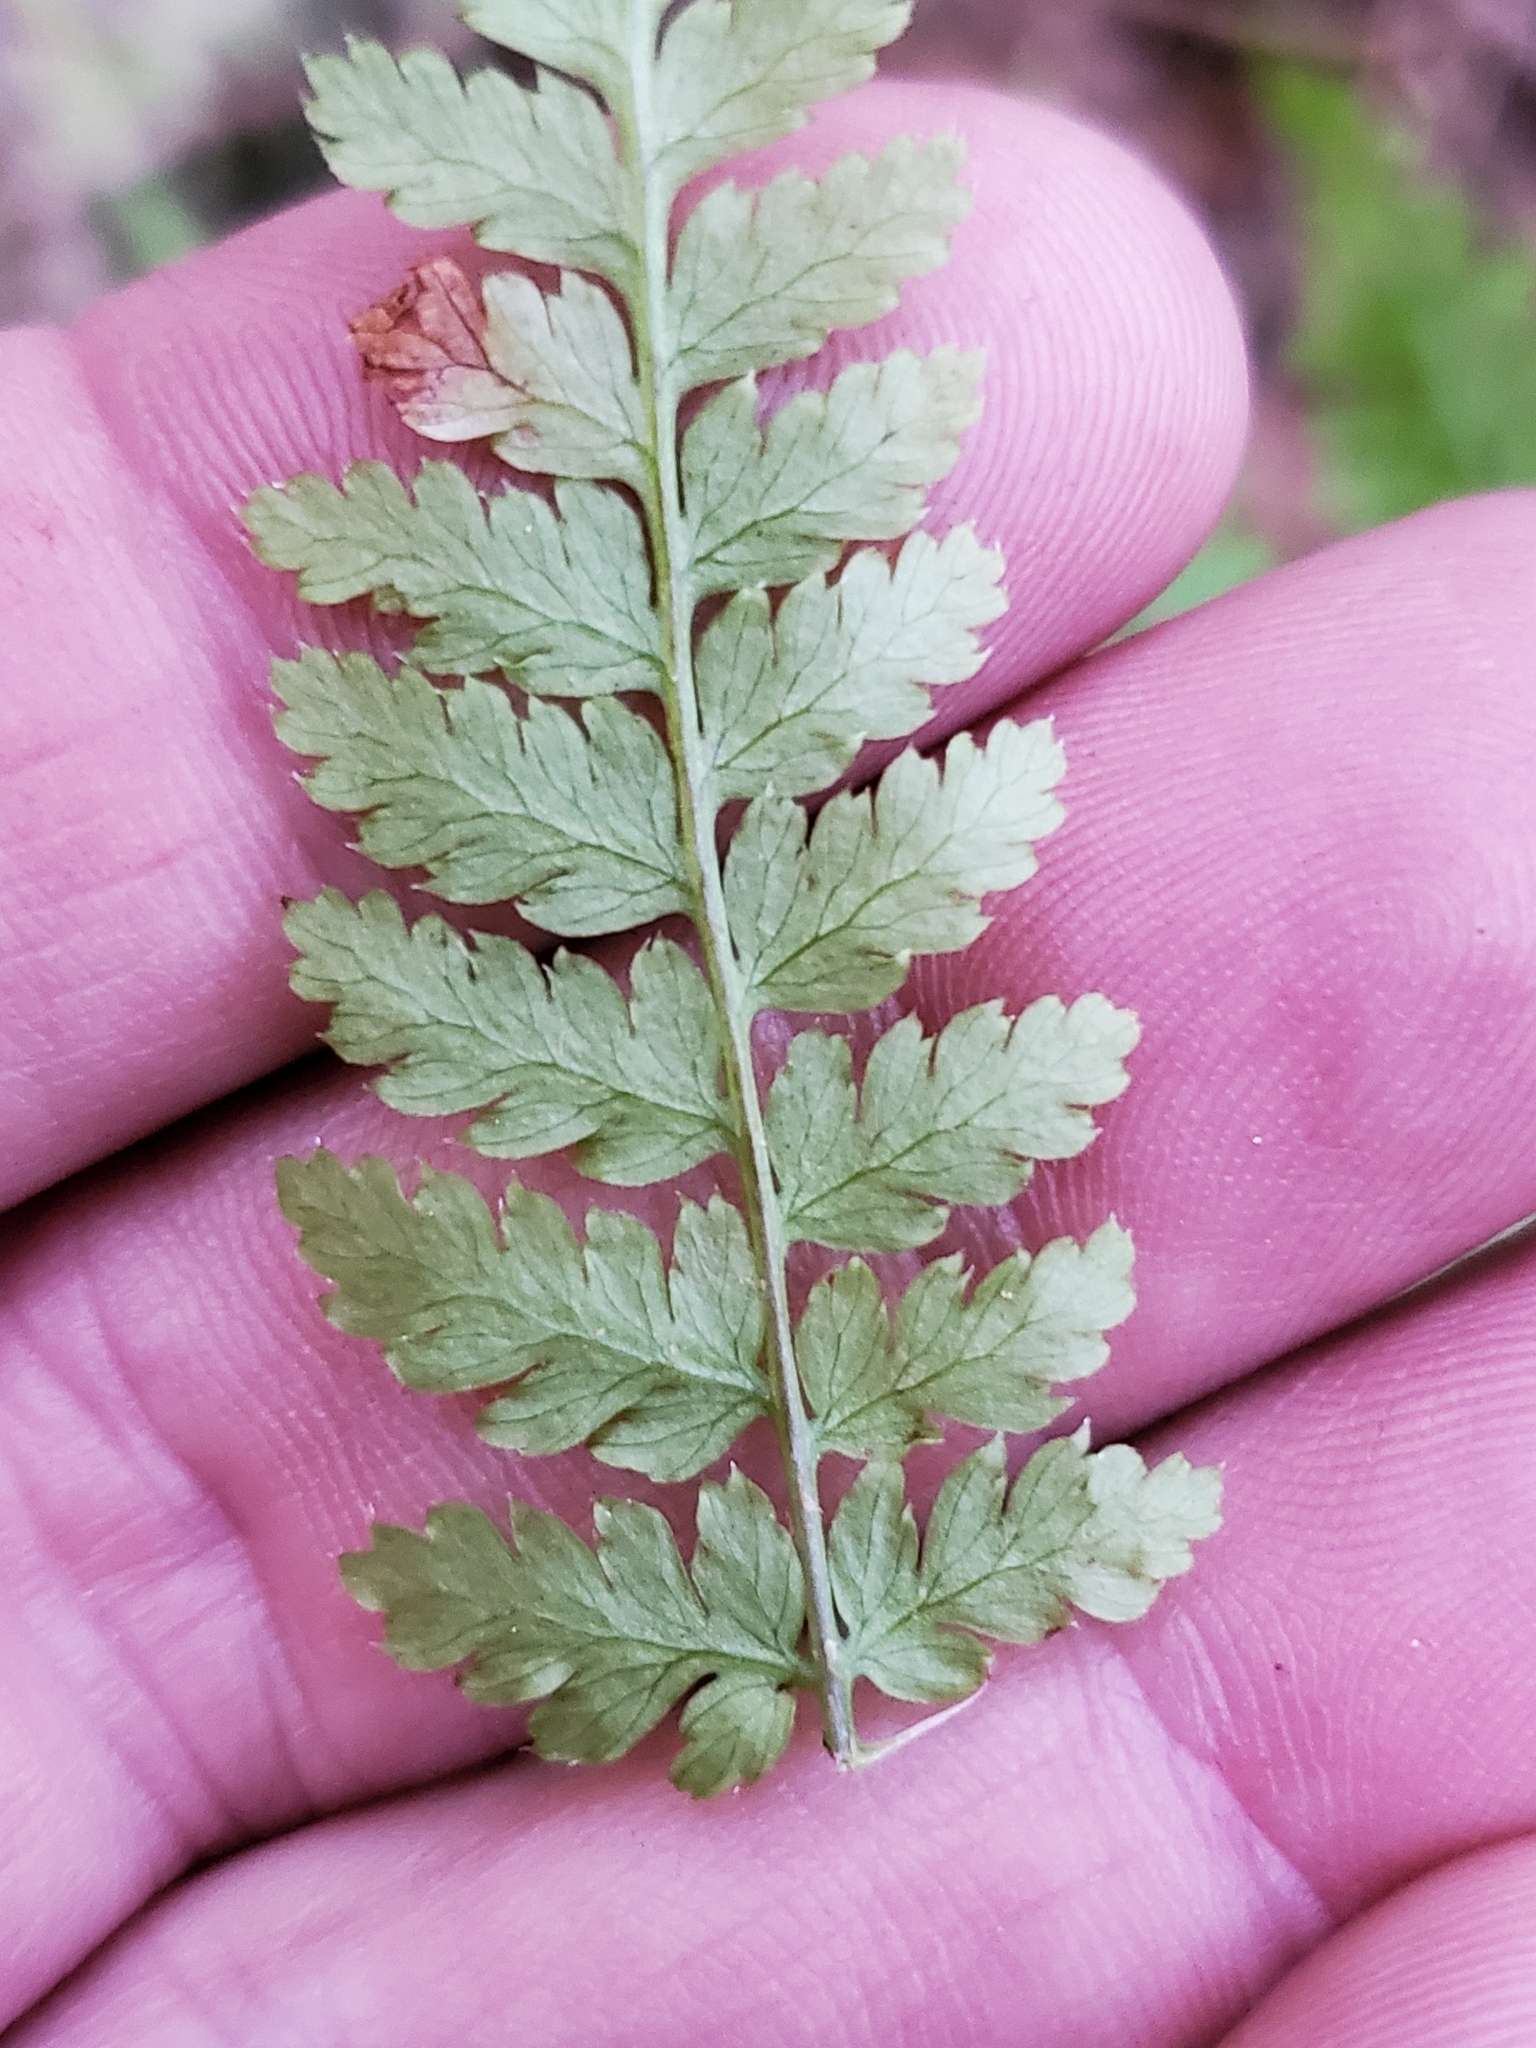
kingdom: Plantae
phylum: Tracheophyta
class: Polypodiopsida
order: Polypodiales
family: Dryopteridaceae
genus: Dryopteris
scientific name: Dryopteris expansa
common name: Northern buckler fern
